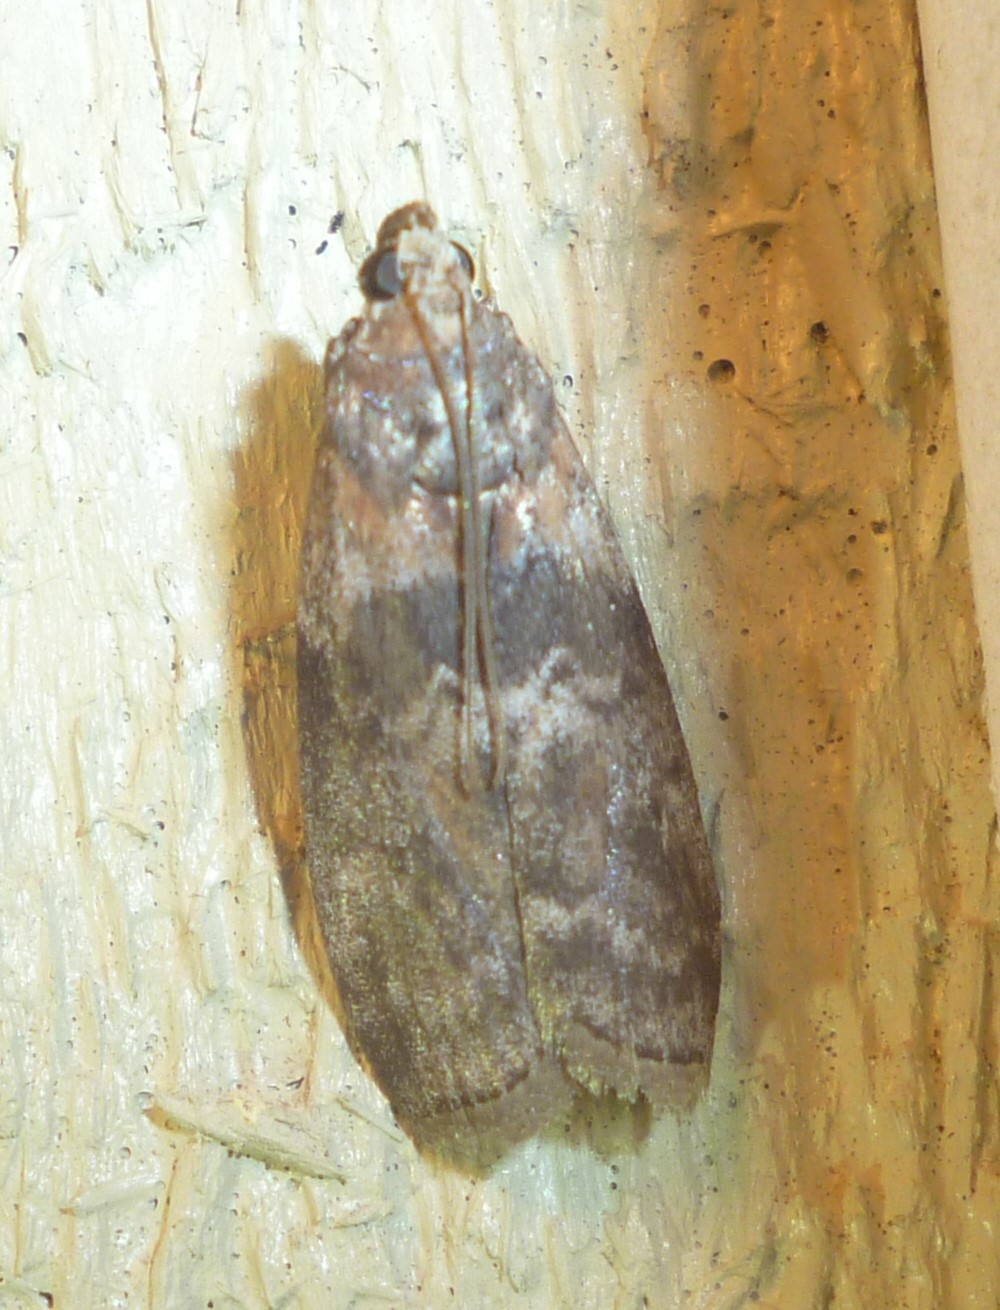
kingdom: Animalia
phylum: Arthropoda
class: Insecta
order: Lepidoptera
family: Pyralidae
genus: Sciota
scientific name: Sciota subcaesiella
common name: Locust leafroller
